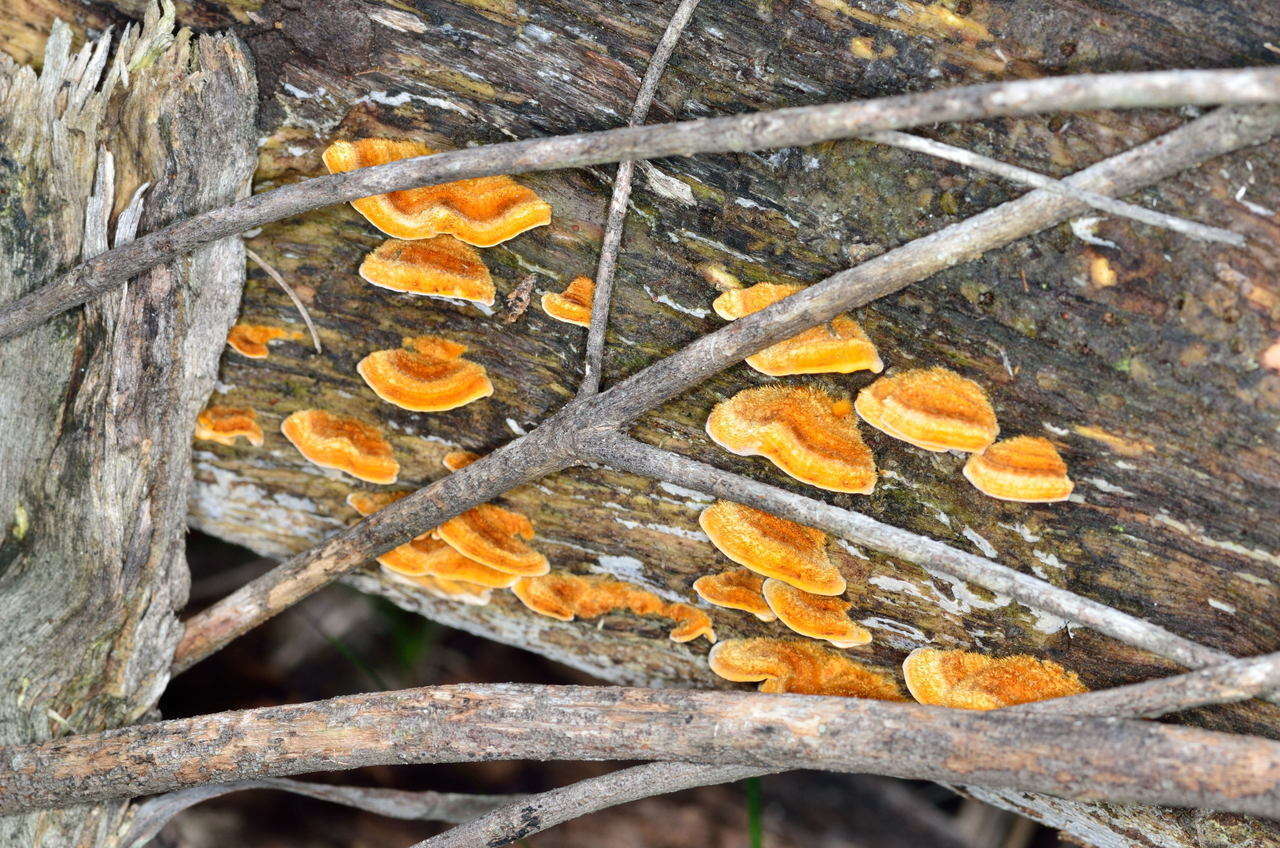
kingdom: Fungi
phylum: Basidiomycota
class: Agaricomycetes
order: Russulales
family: Stereaceae
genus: Stereum
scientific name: Stereum hirsutum
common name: Hairy curtain crust
